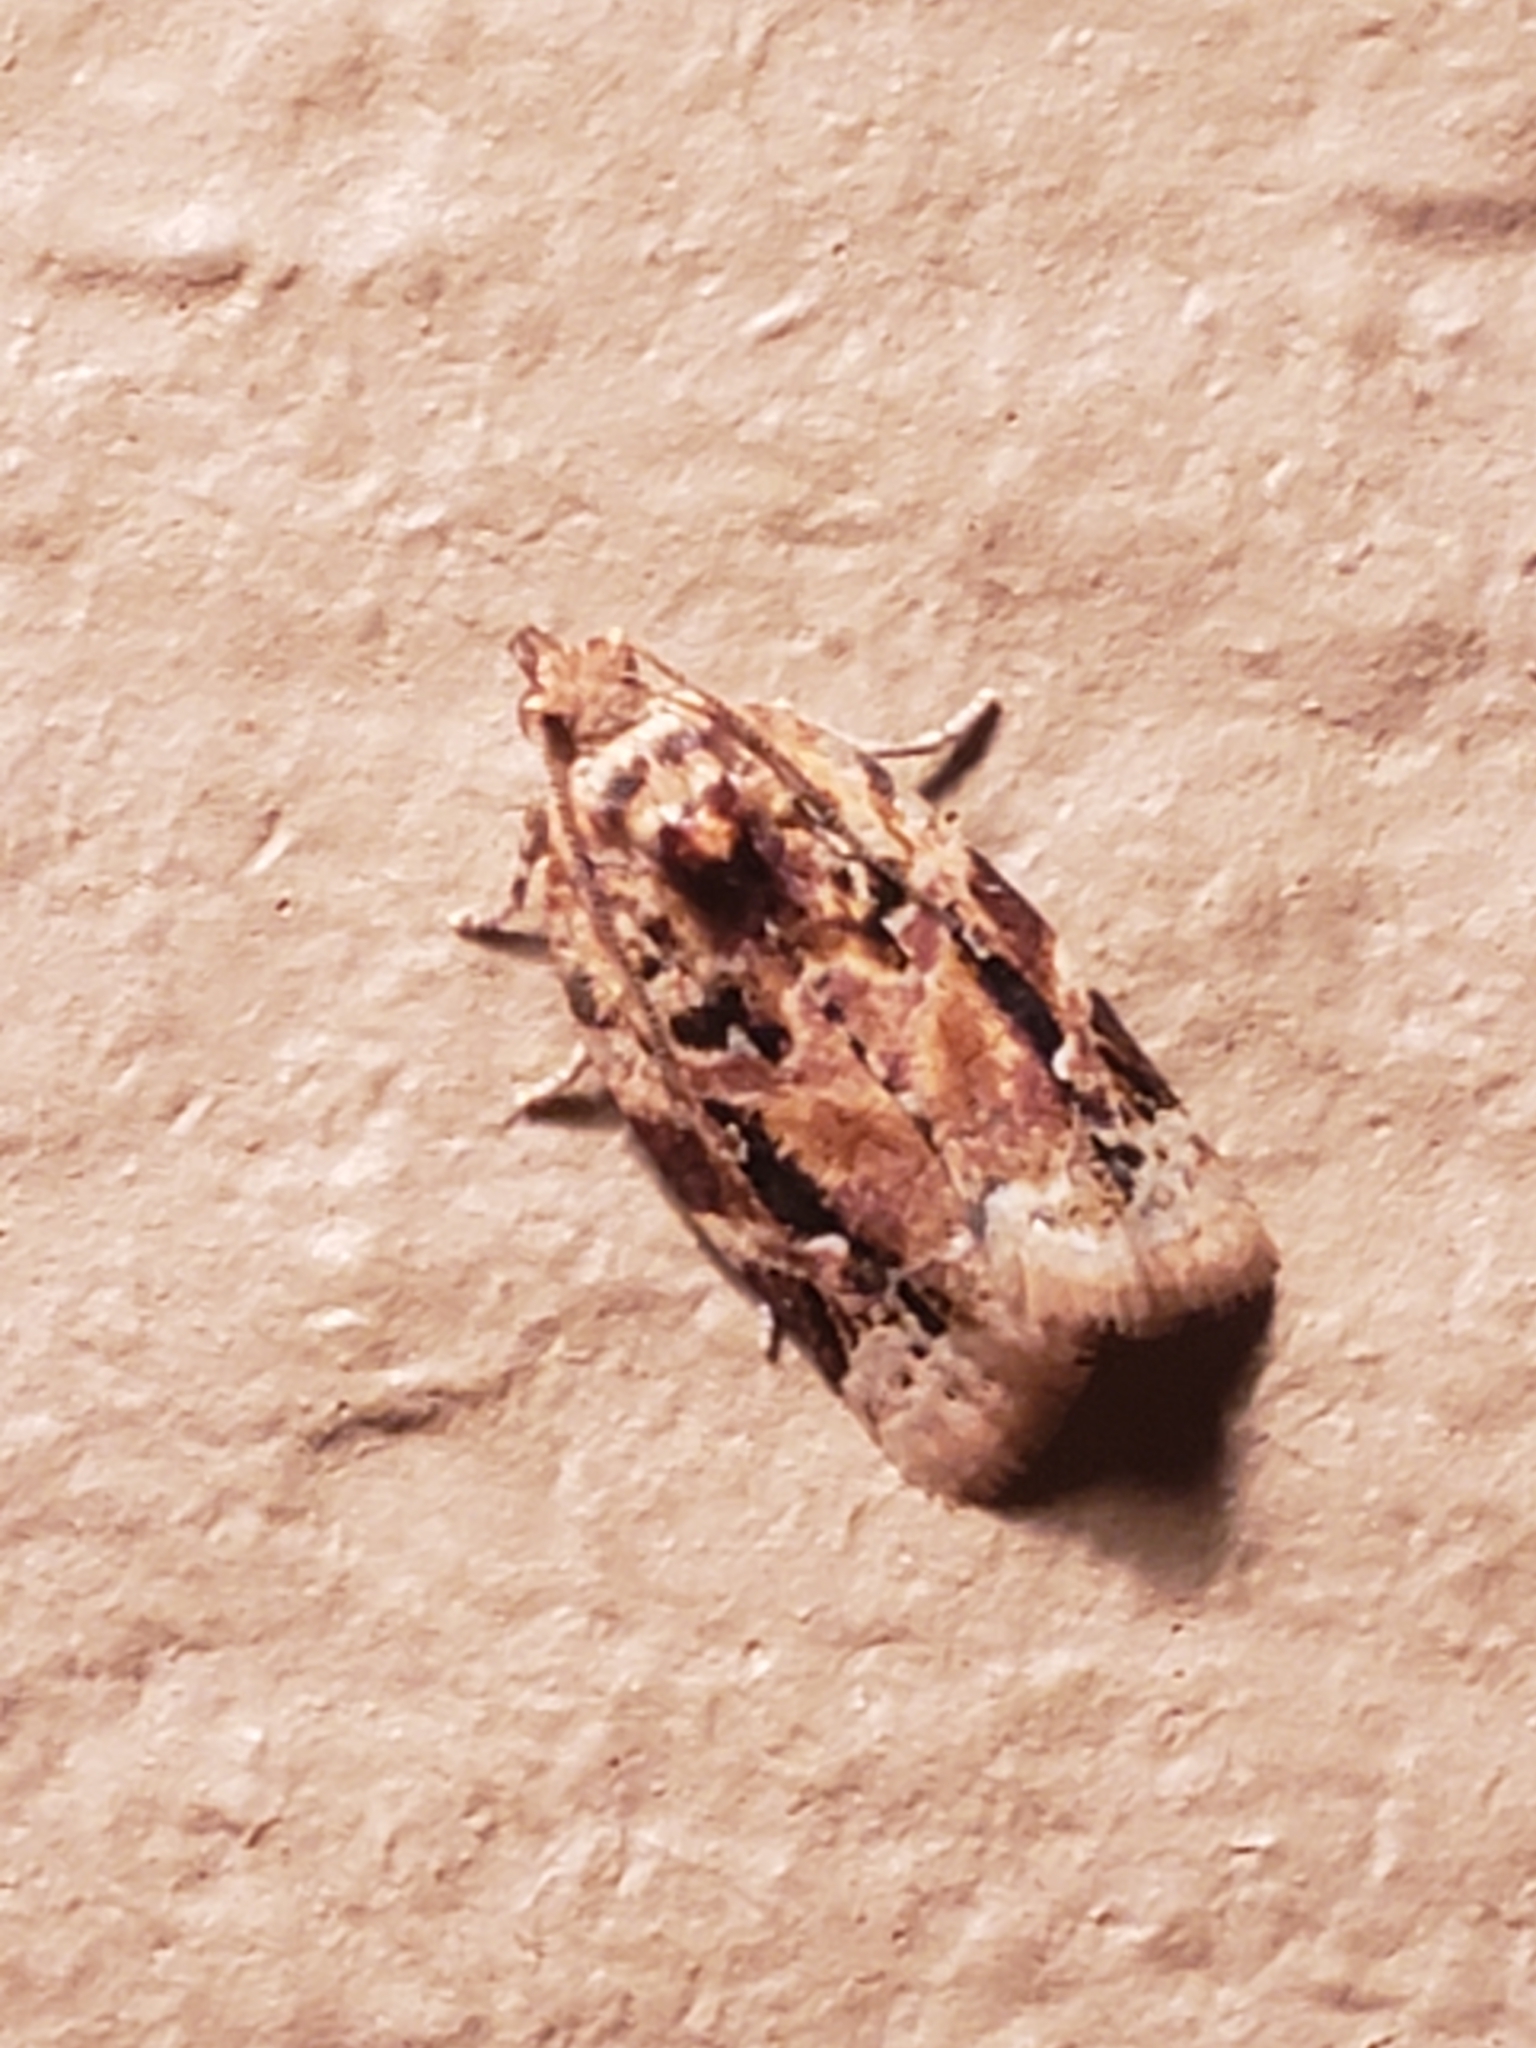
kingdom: Animalia
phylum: Arthropoda
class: Insecta
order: Lepidoptera
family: Tortricidae
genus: Argyrotaenia
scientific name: Argyrotaenia velutinana
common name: Red-banded leafroller moth
